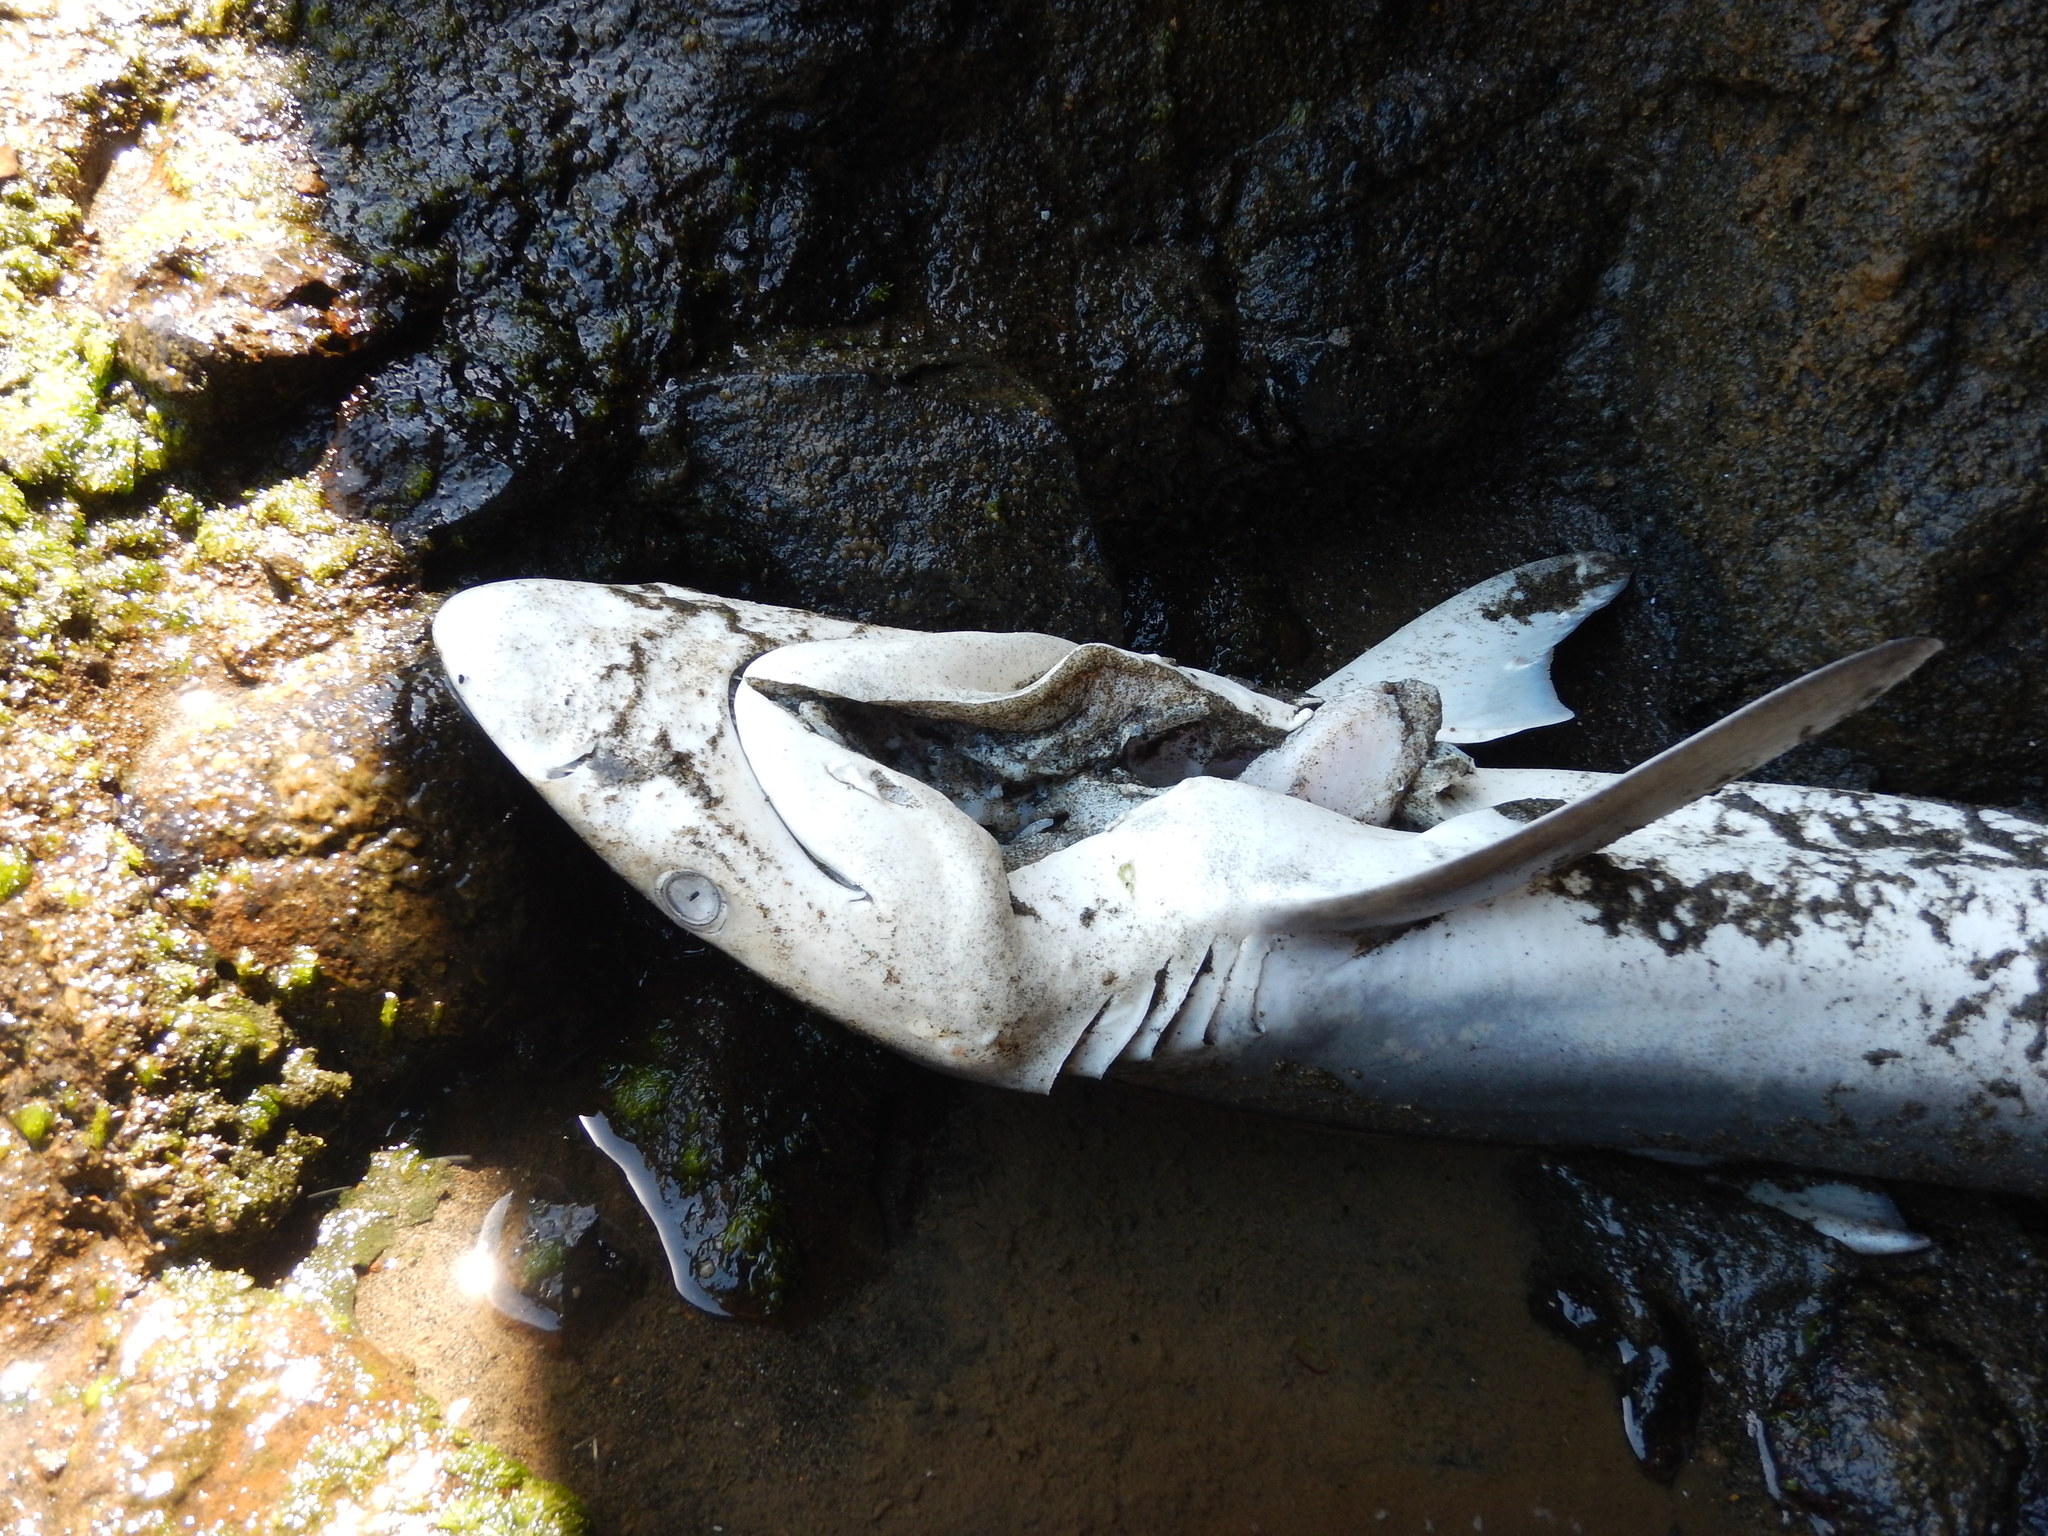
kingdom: Animalia
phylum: Chordata
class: Elasmobranchii
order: Carcharhiniformes
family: Carcharhinidae
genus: Carcharhinus
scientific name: Carcharhinus brachyurus
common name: Bronze whaler
